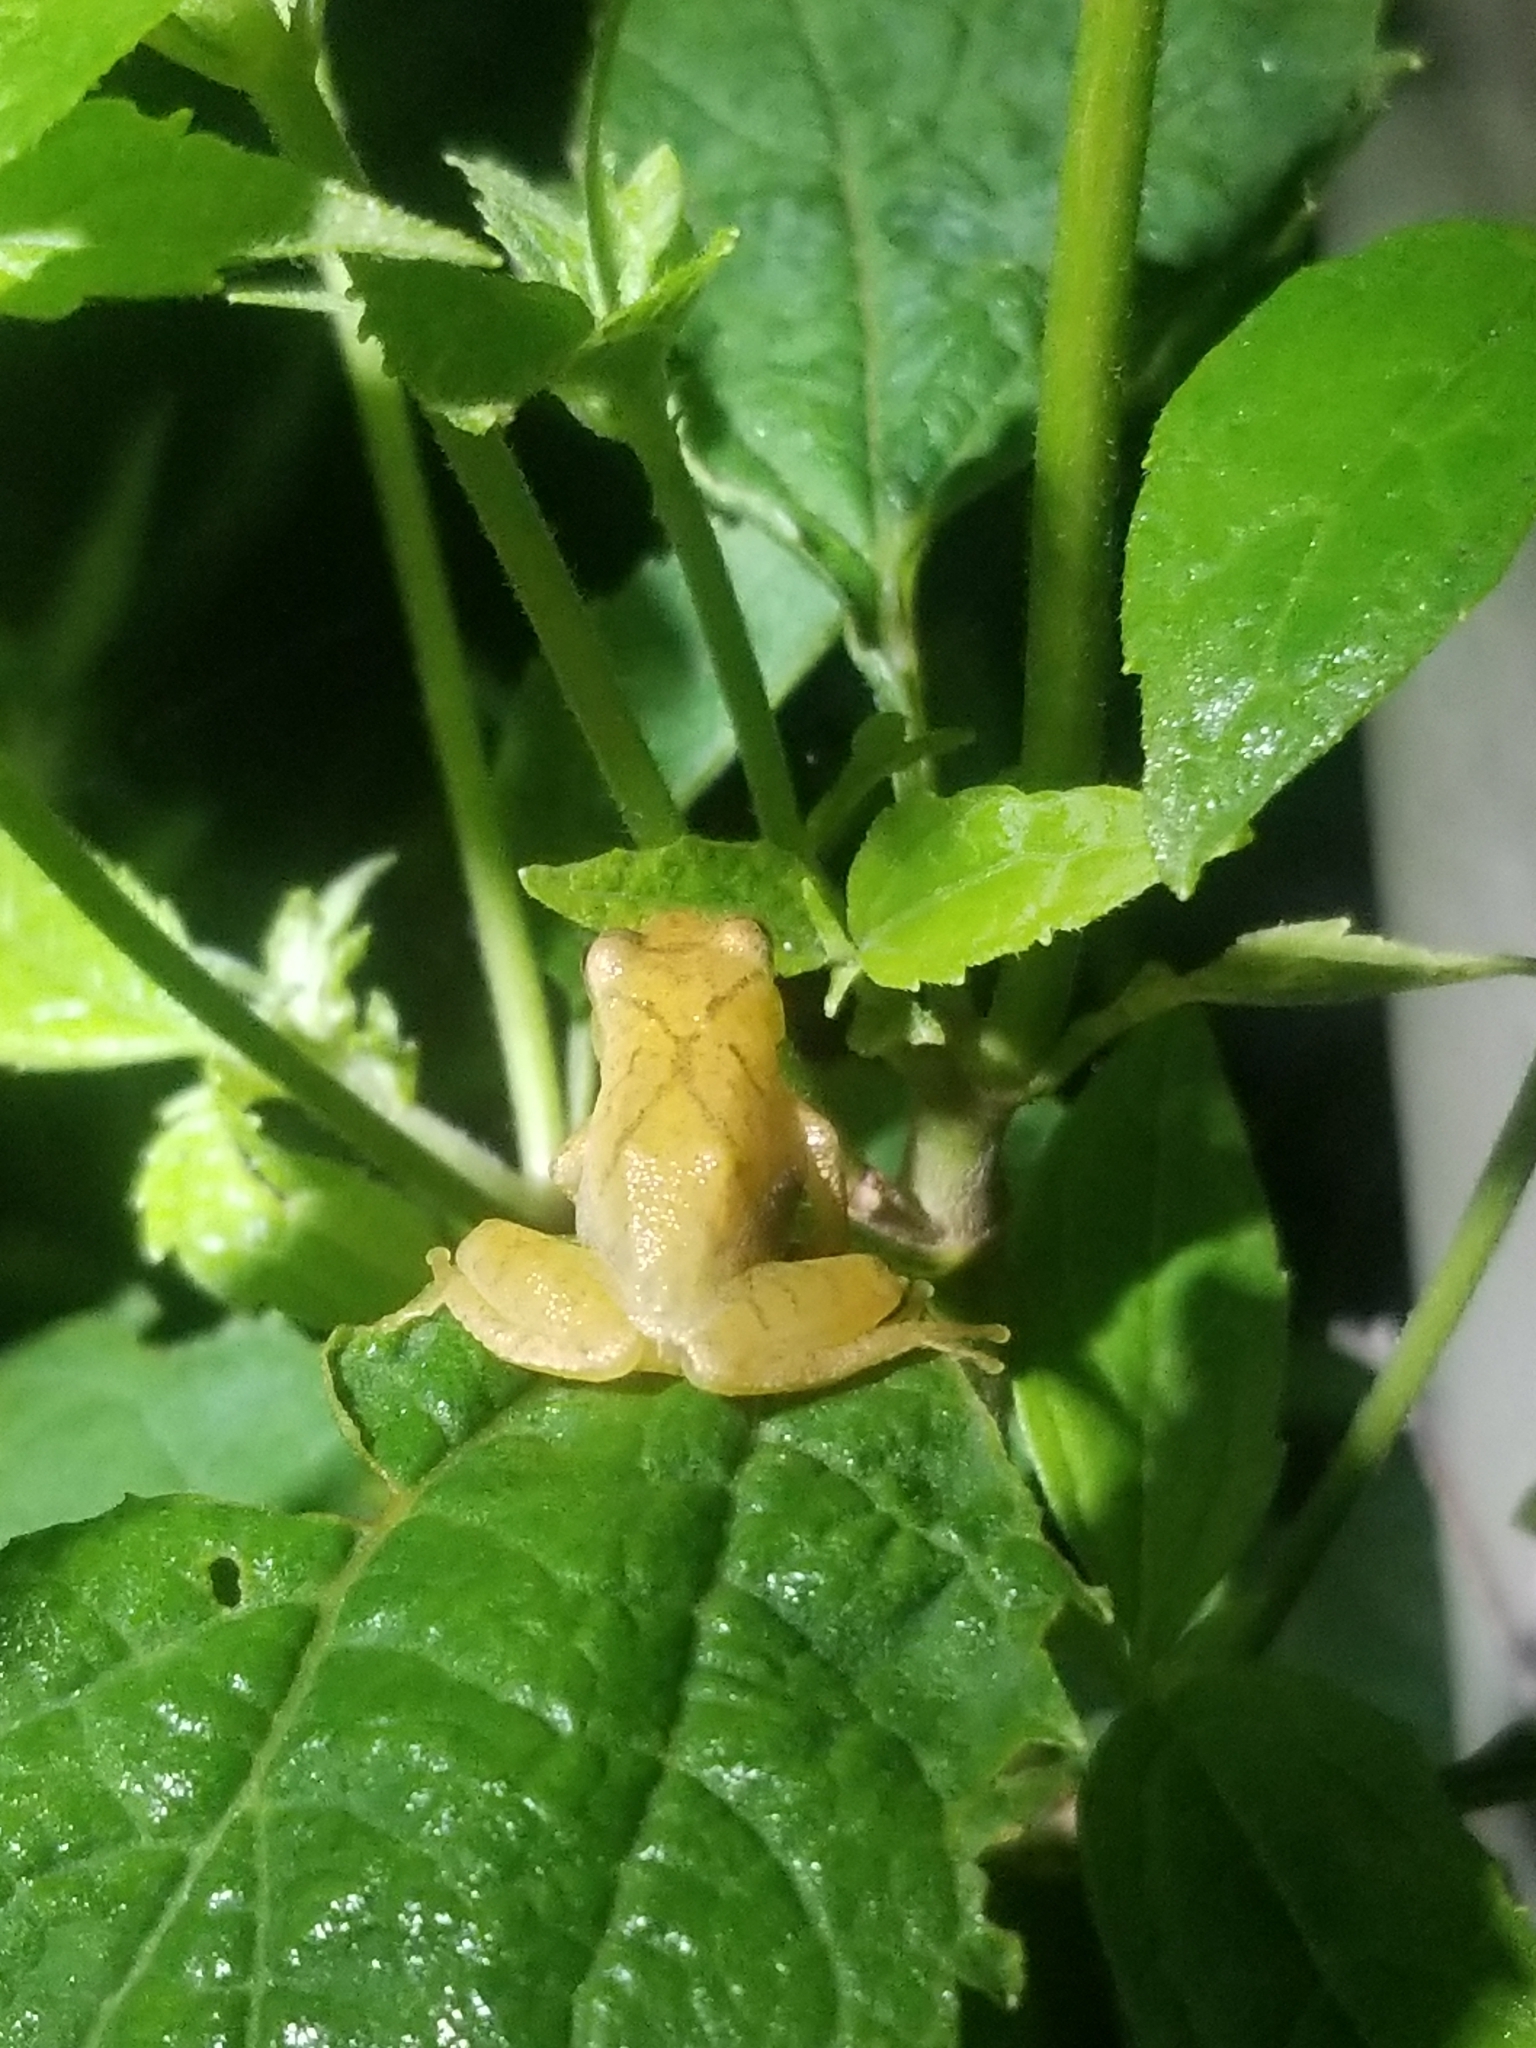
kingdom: Animalia
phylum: Chordata
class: Amphibia
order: Anura
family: Hylidae
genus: Pseudacris
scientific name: Pseudacris crucifer
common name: Spring peeper
